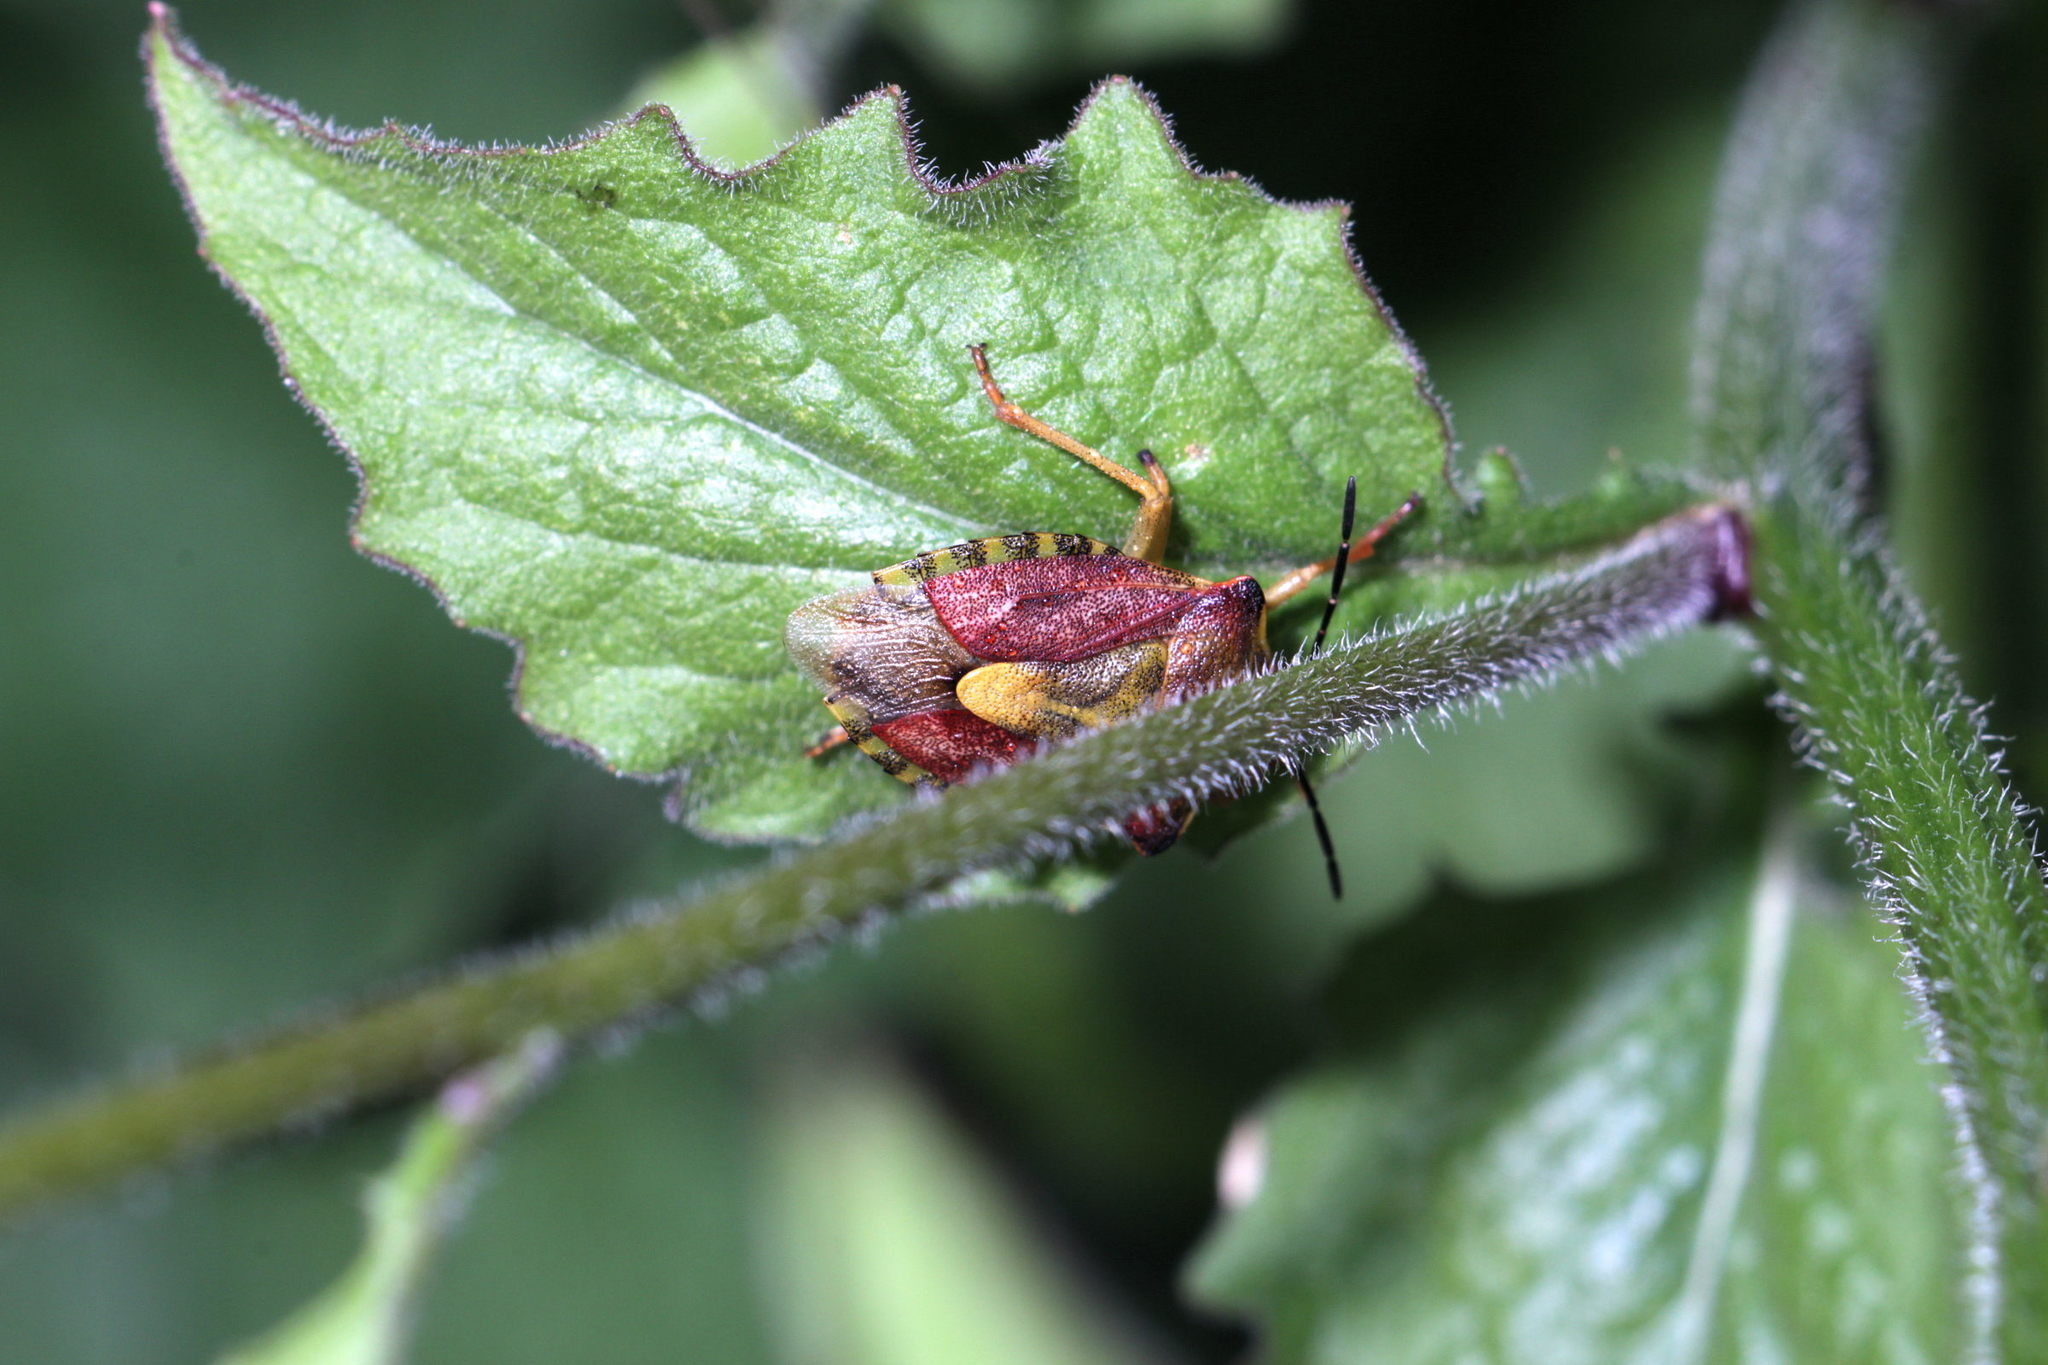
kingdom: Animalia
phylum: Arthropoda
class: Insecta
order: Hemiptera
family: Pentatomidae
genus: Carpocoris
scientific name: Carpocoris purpureipennis
